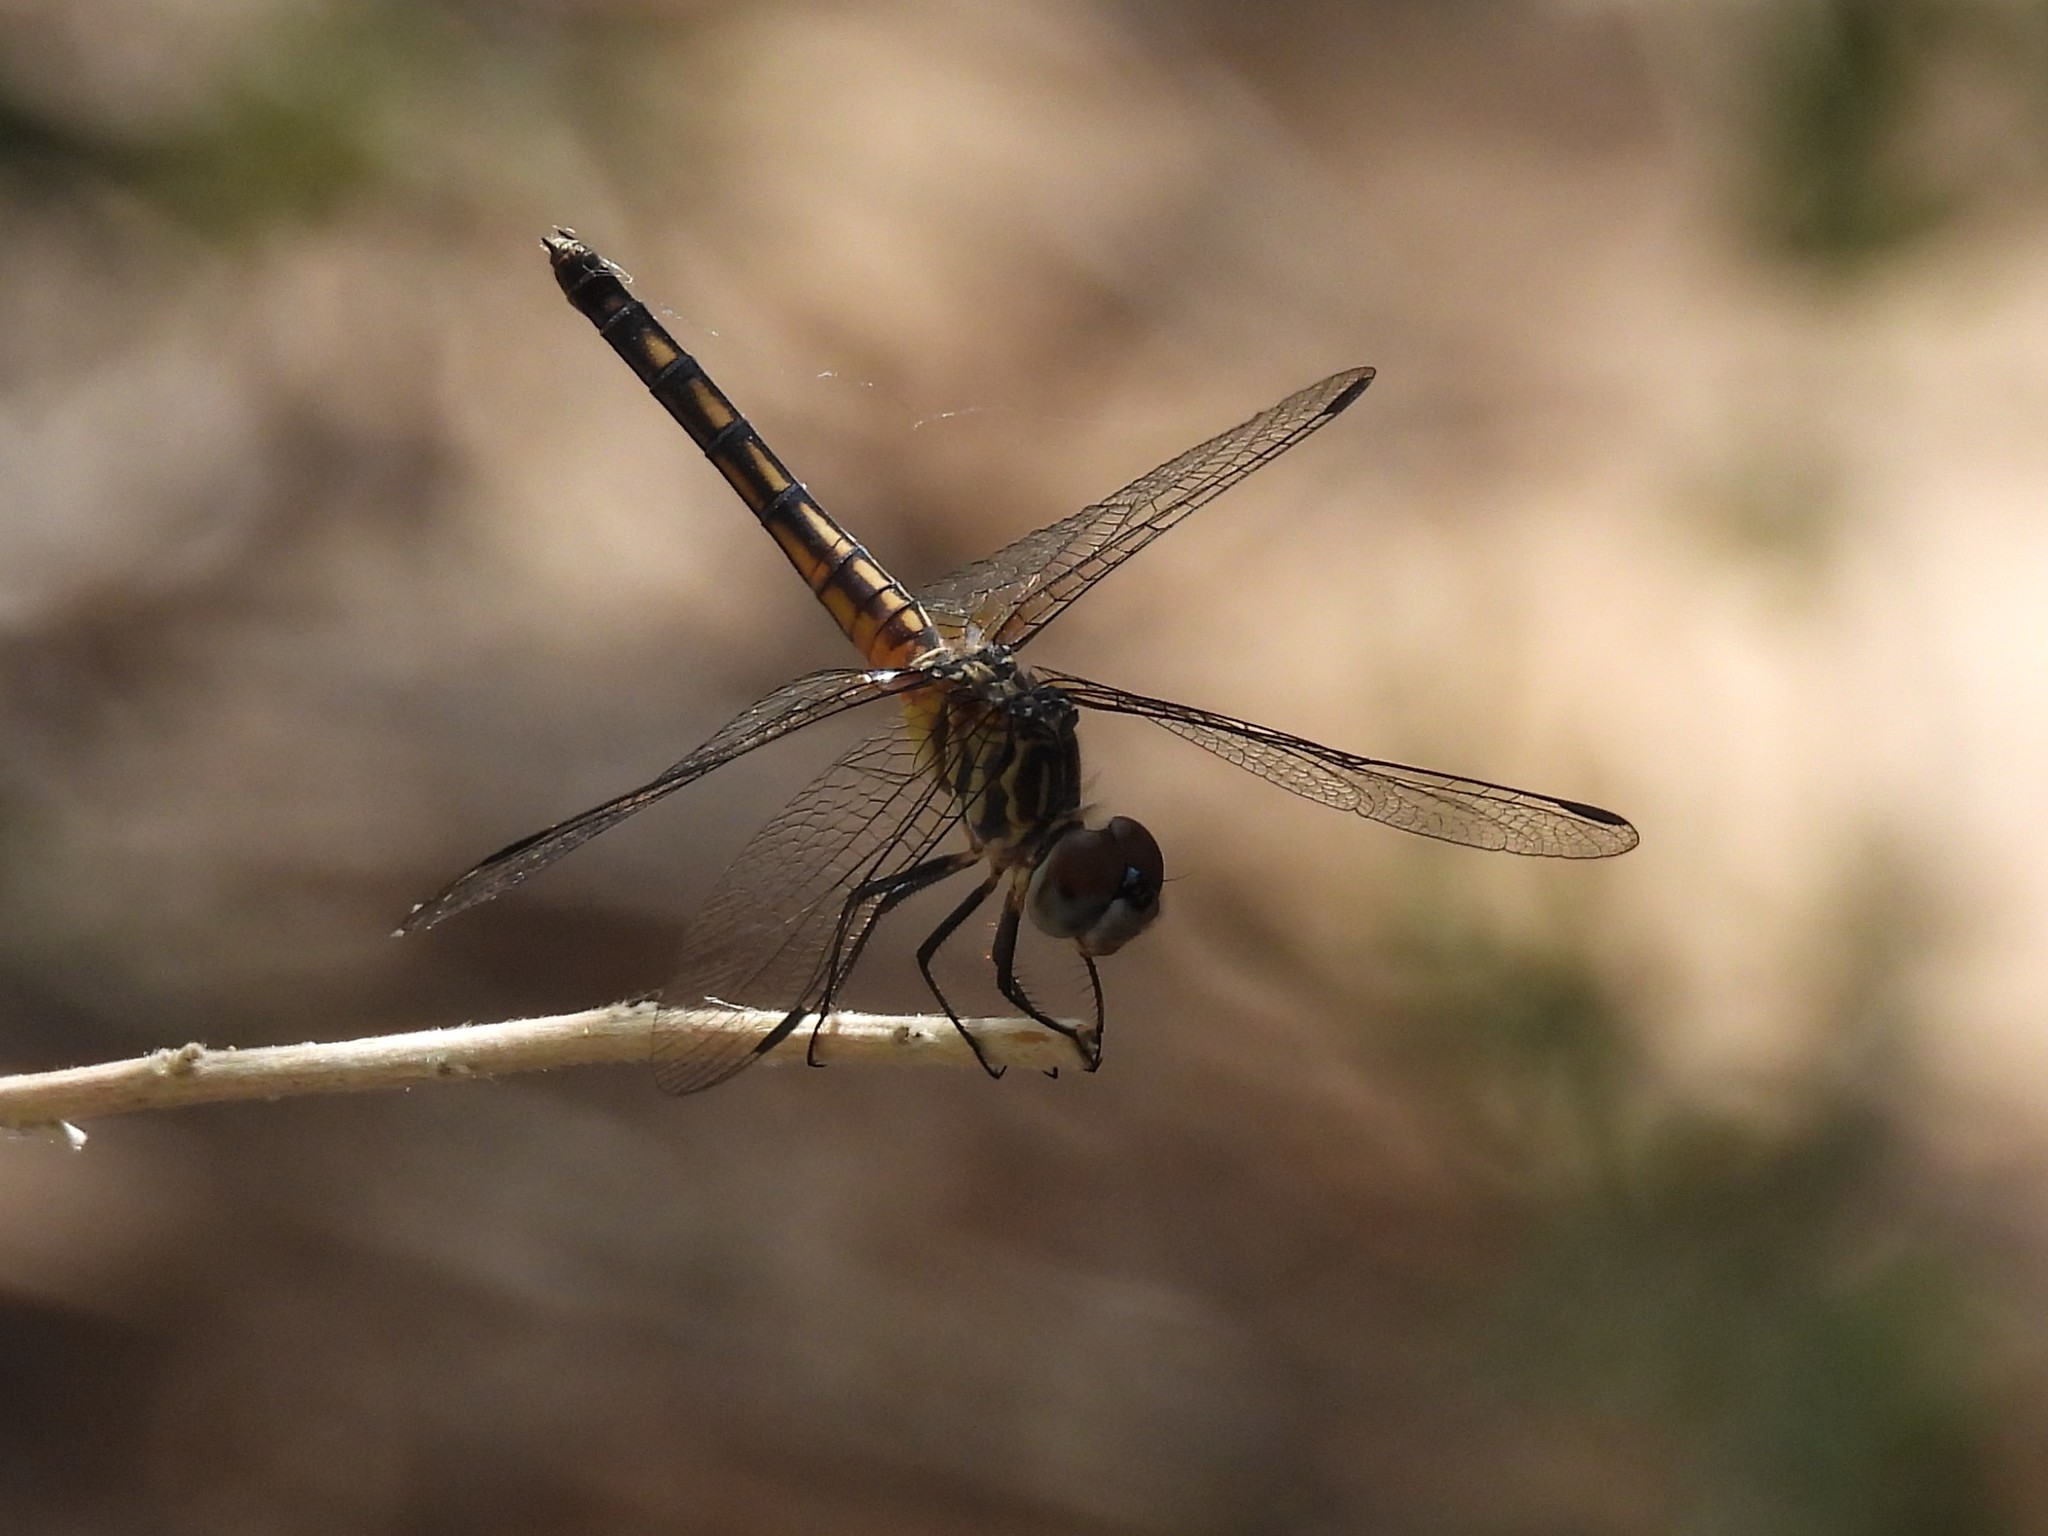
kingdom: Animalia
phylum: Arthropoda
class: Insecta
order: Odonata
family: Libellulidae
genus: Pachydiplax
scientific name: Pachydiplax longipennis
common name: Blue dasher
